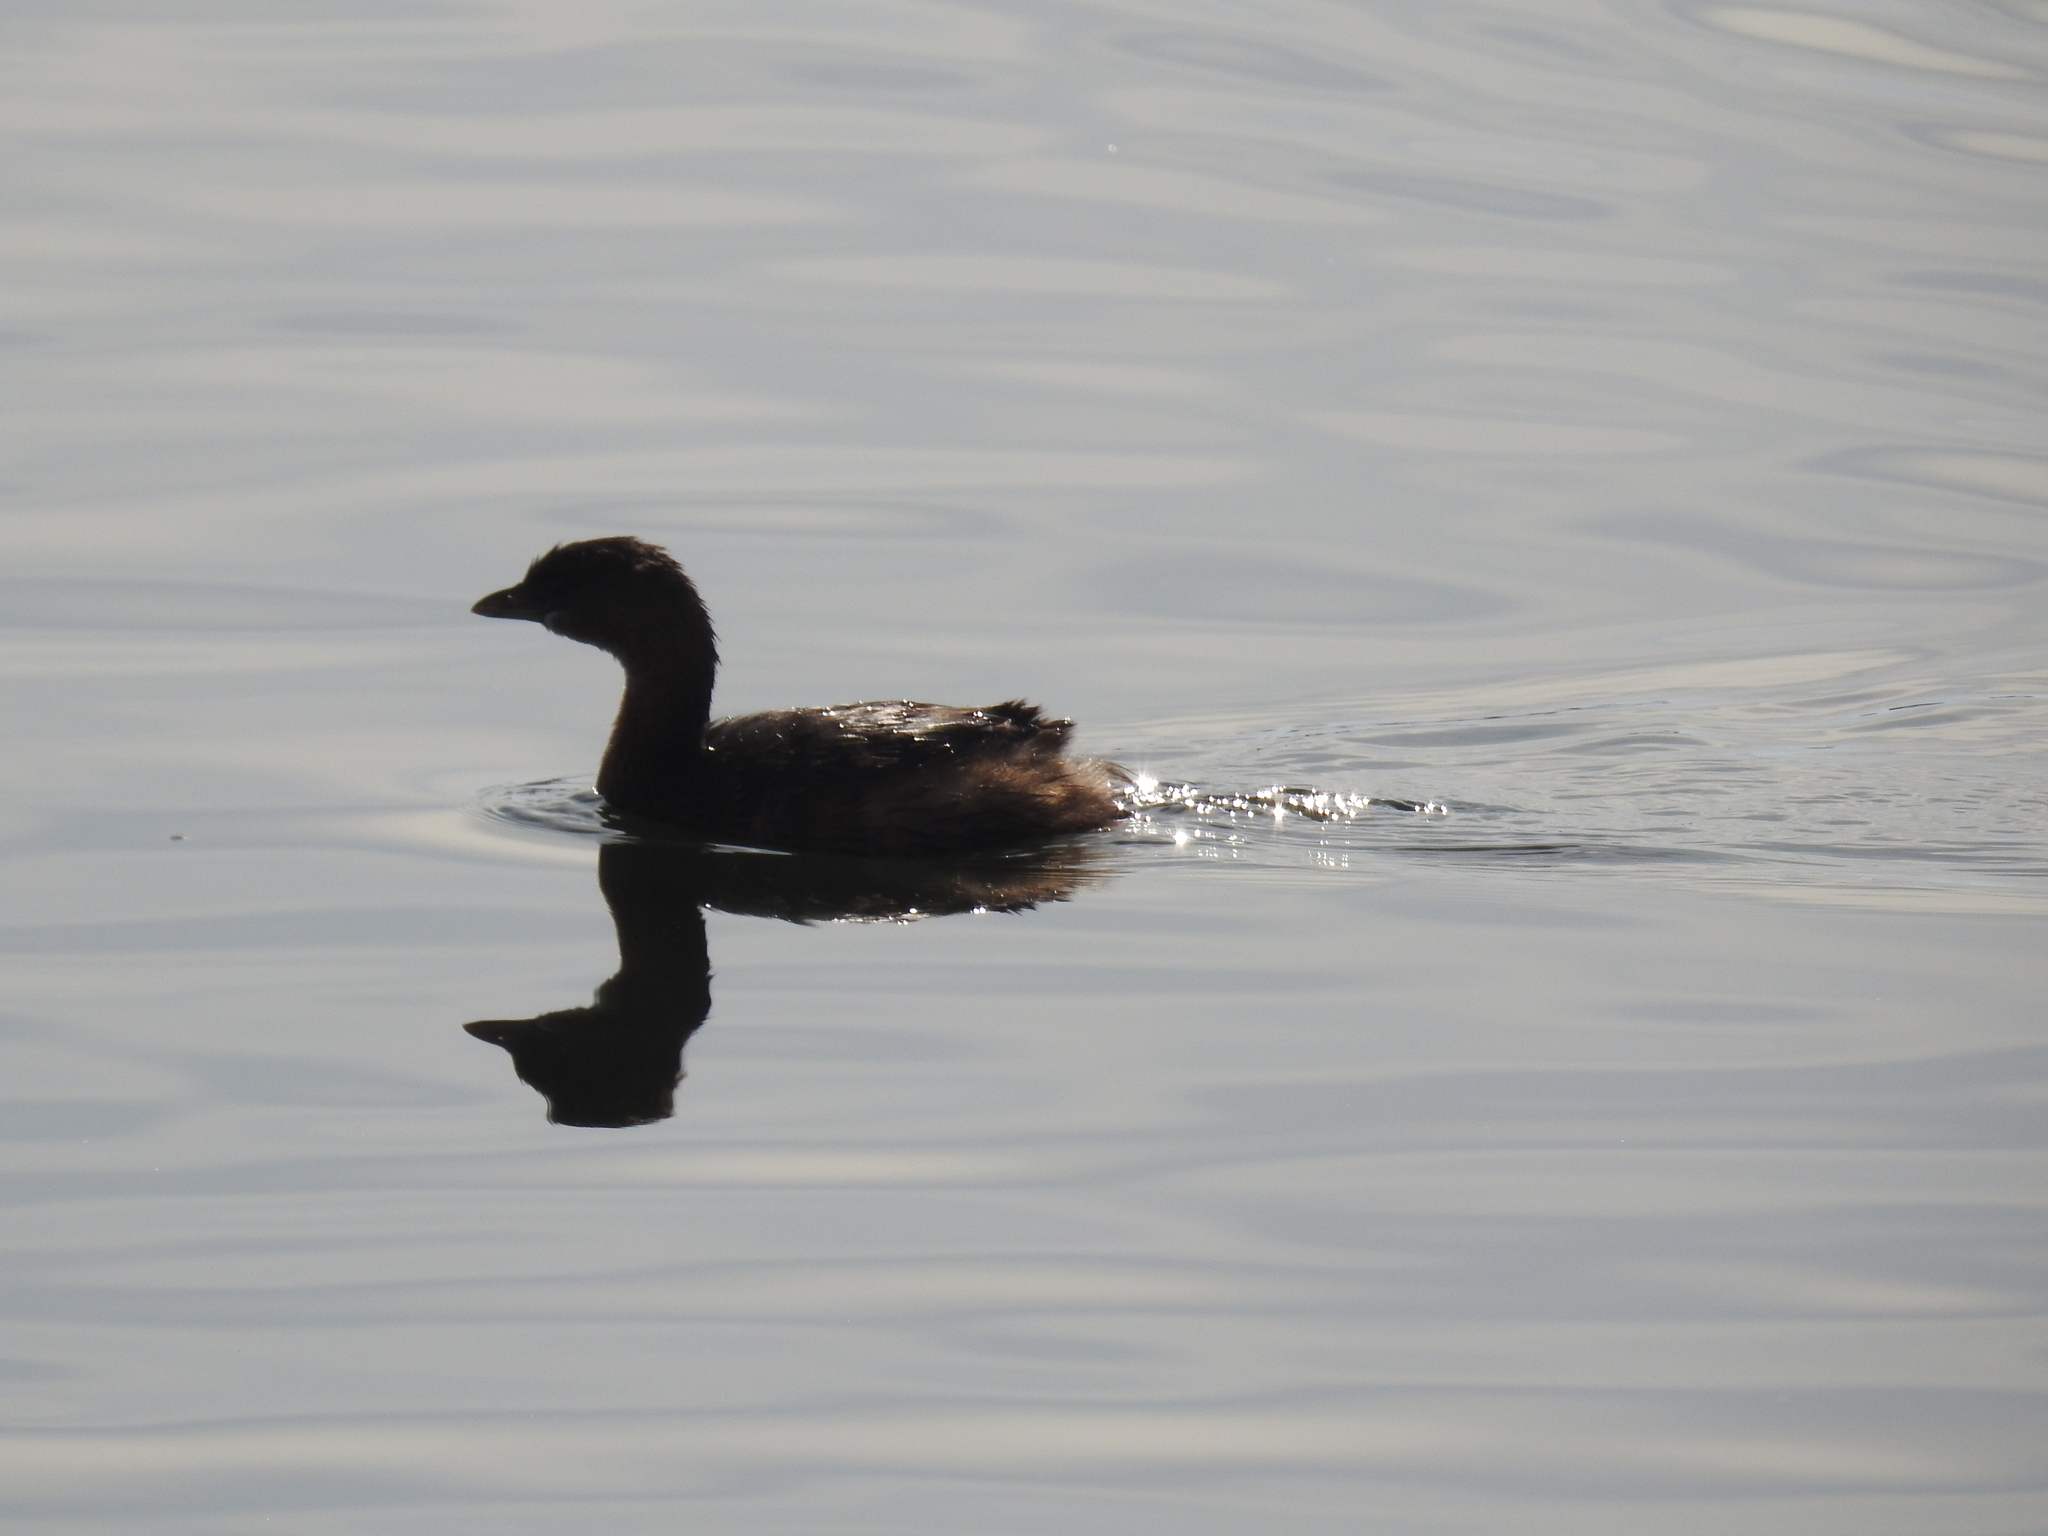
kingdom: Animalia
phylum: Chordata
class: Aves
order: Podicipediformes
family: Podicipedidae
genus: Podilymbus
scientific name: Podilymbus podiceps
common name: Pied-billed grebe
